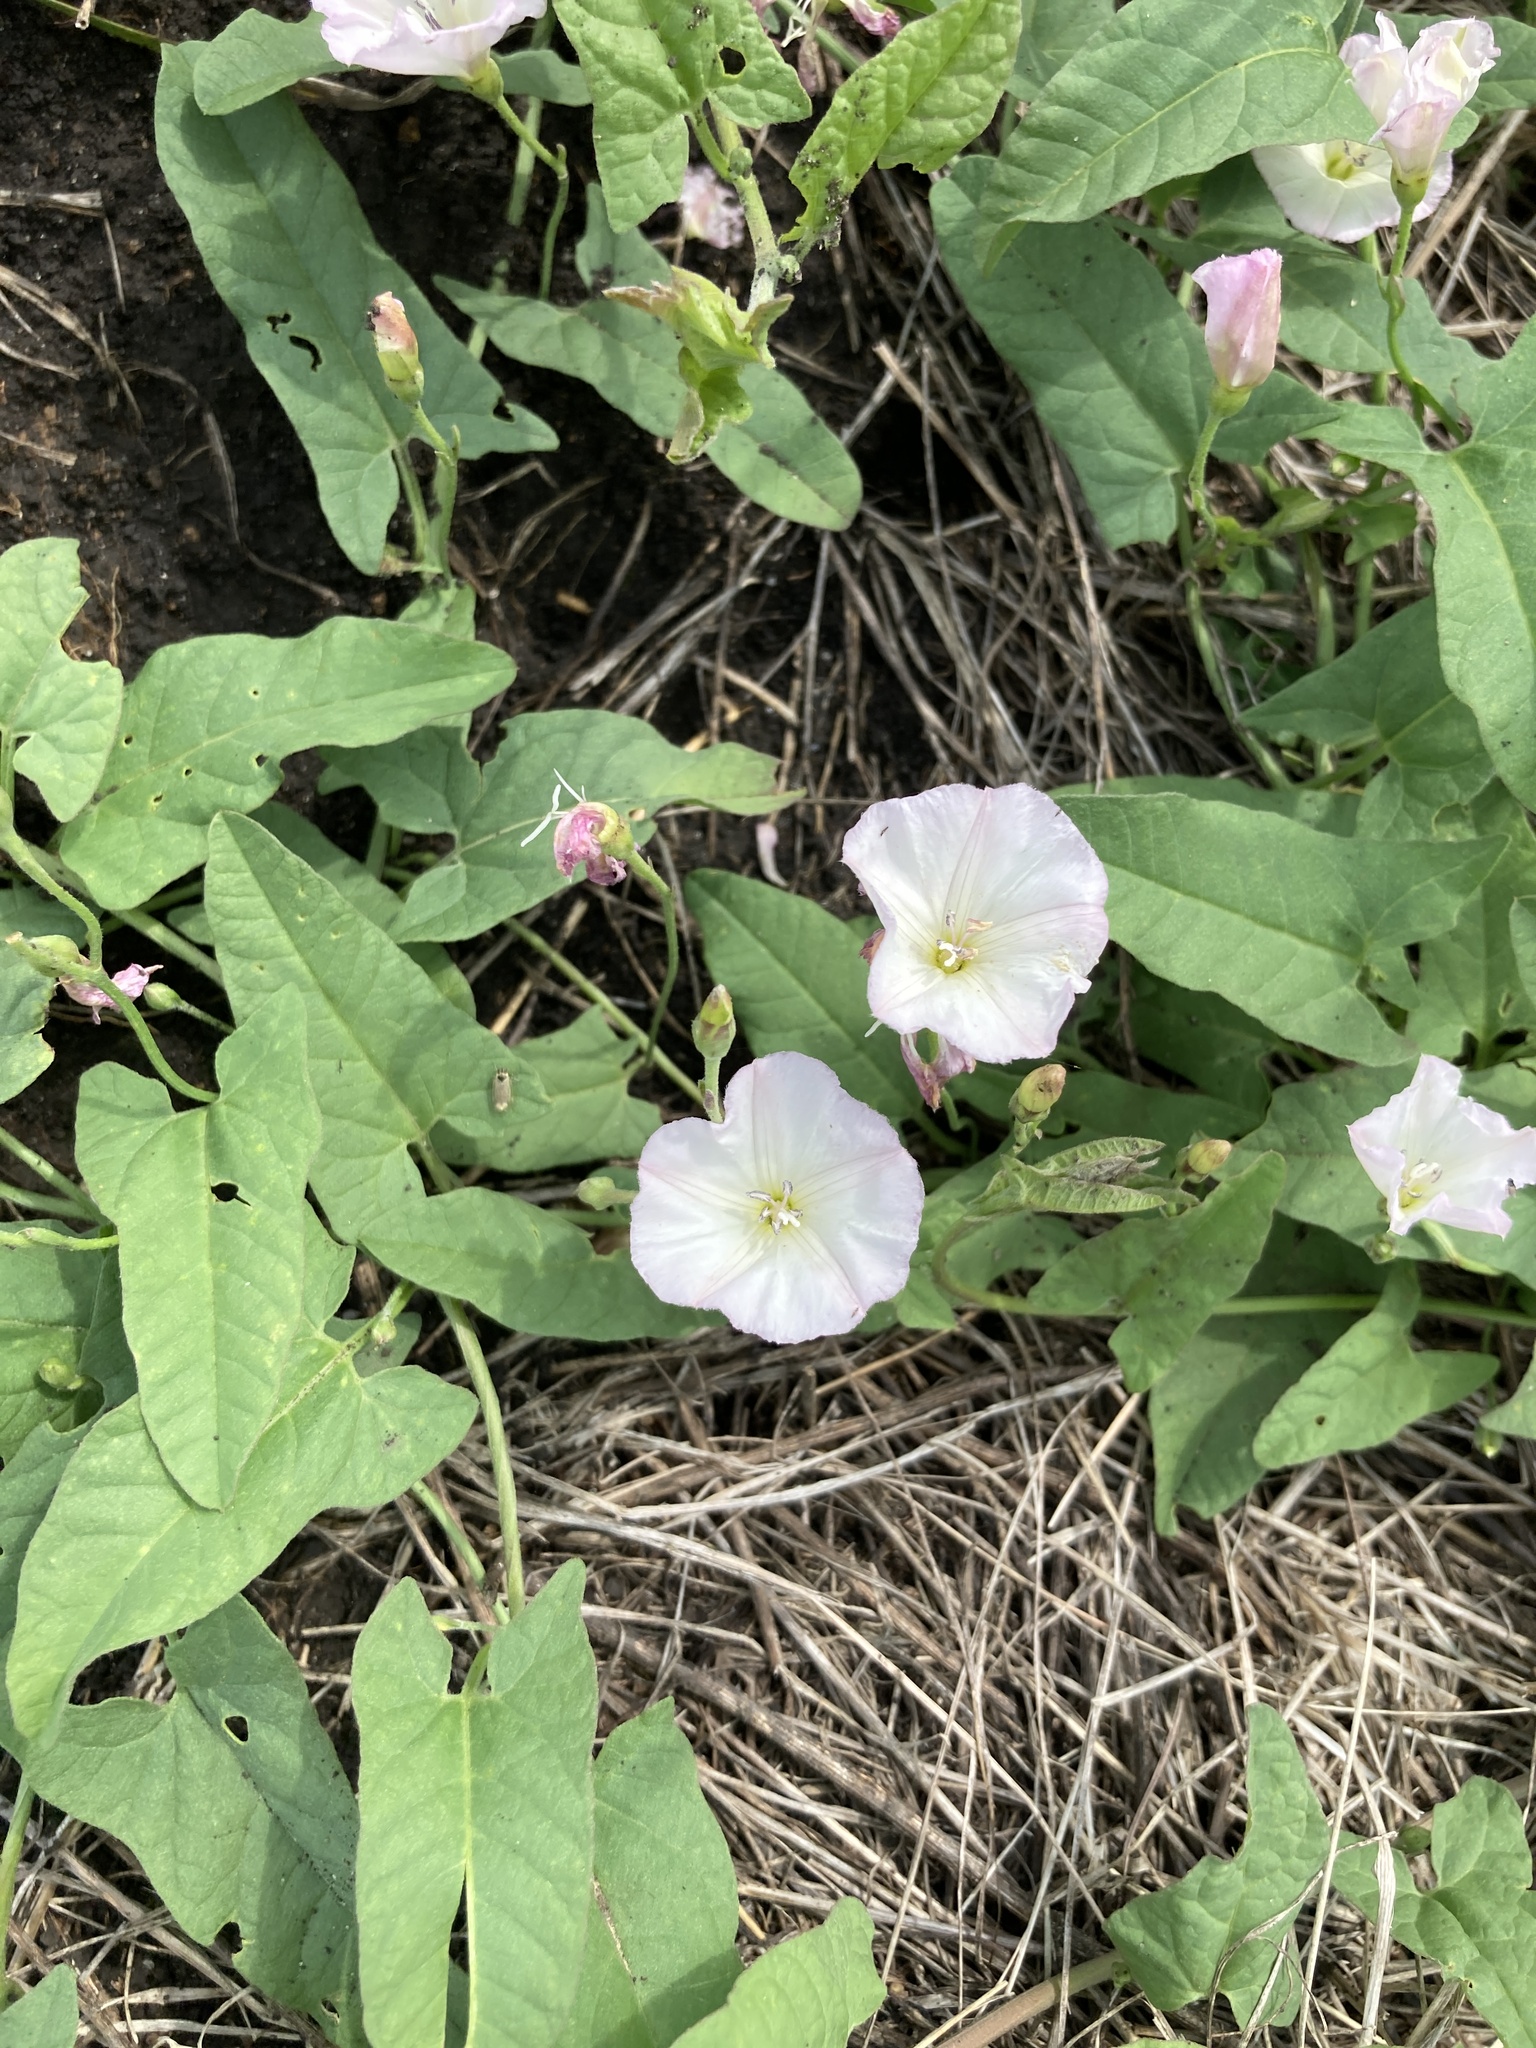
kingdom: Plantae
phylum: Tracheophyta
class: Magnoliopsida
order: Solanales
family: Convolvulaceae
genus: Convolvulus
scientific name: Convolvulus arvensis
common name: Field bindweed
